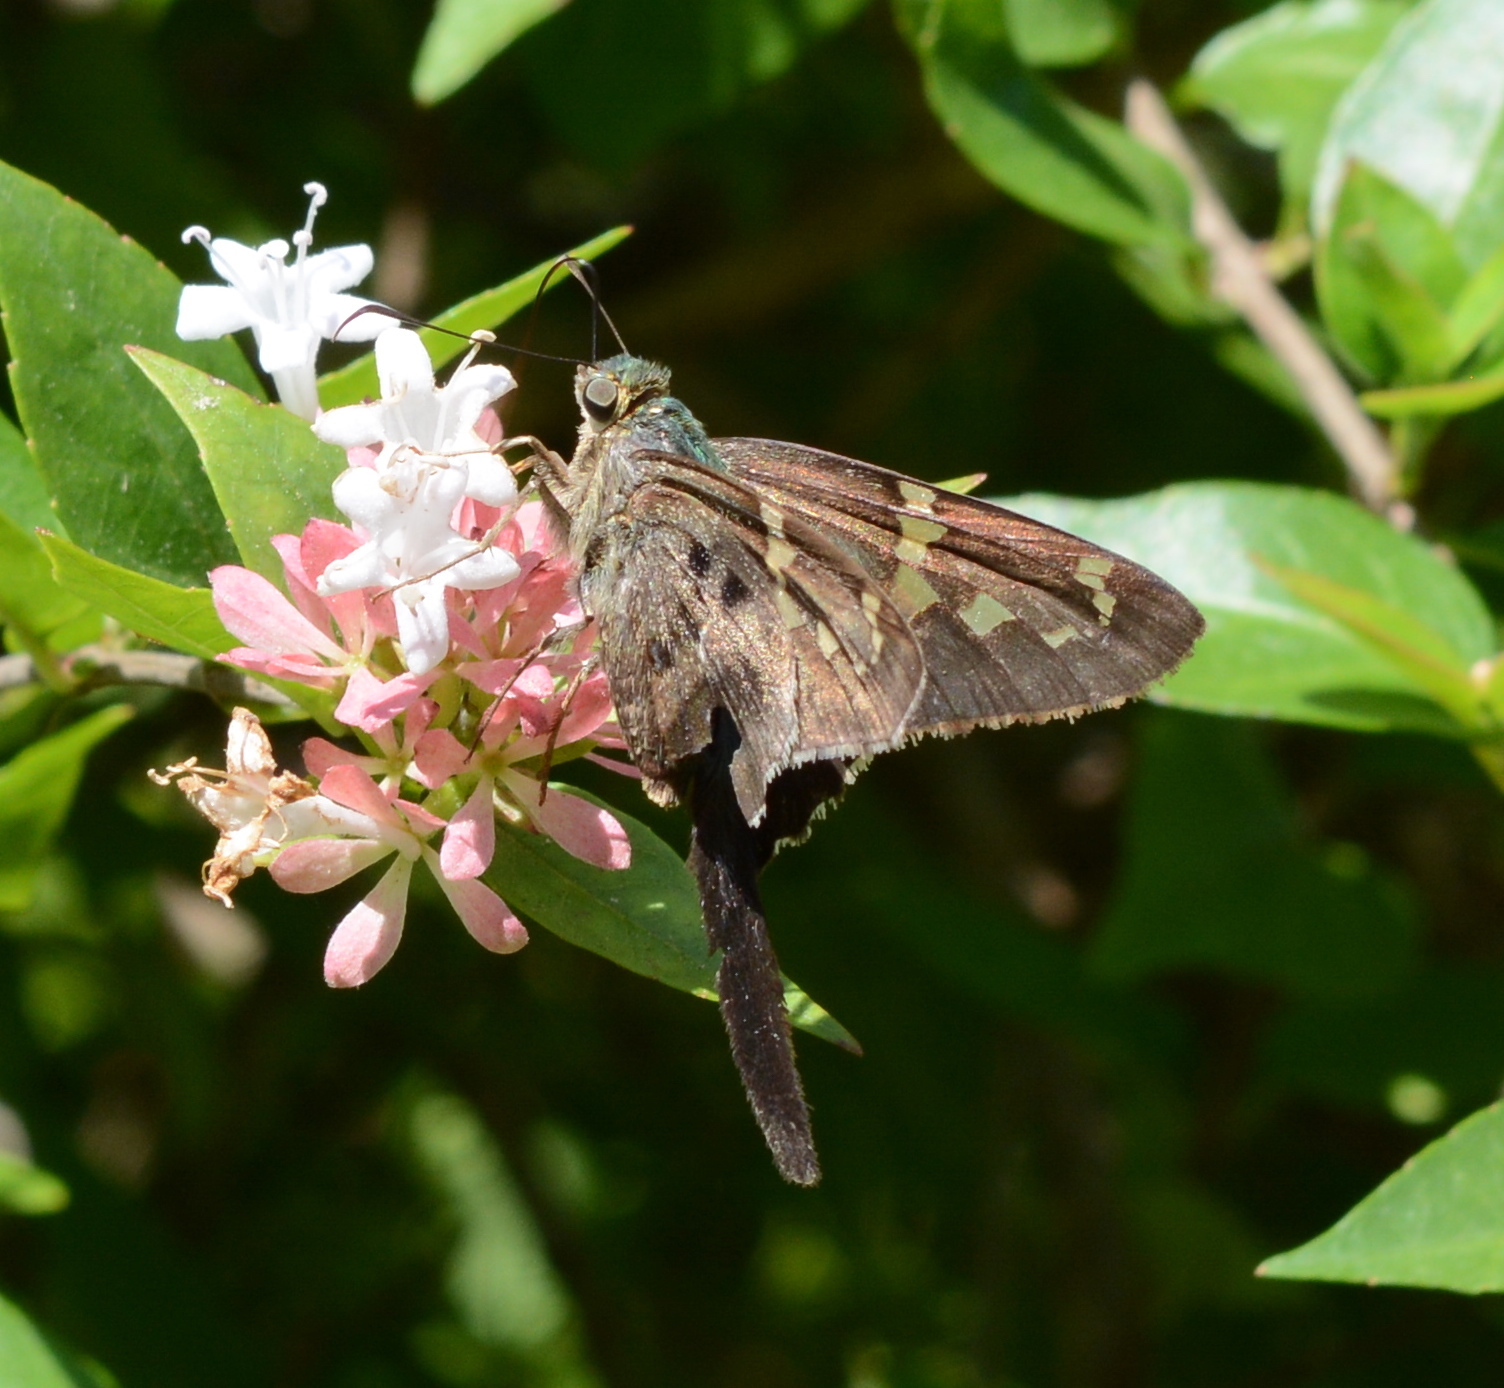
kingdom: Animalia
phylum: Arthropoda
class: Insecta
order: Lepidoptera
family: Hesperiidae
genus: Urbanus
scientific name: Urbanus proteus
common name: Long-tailed skipper
